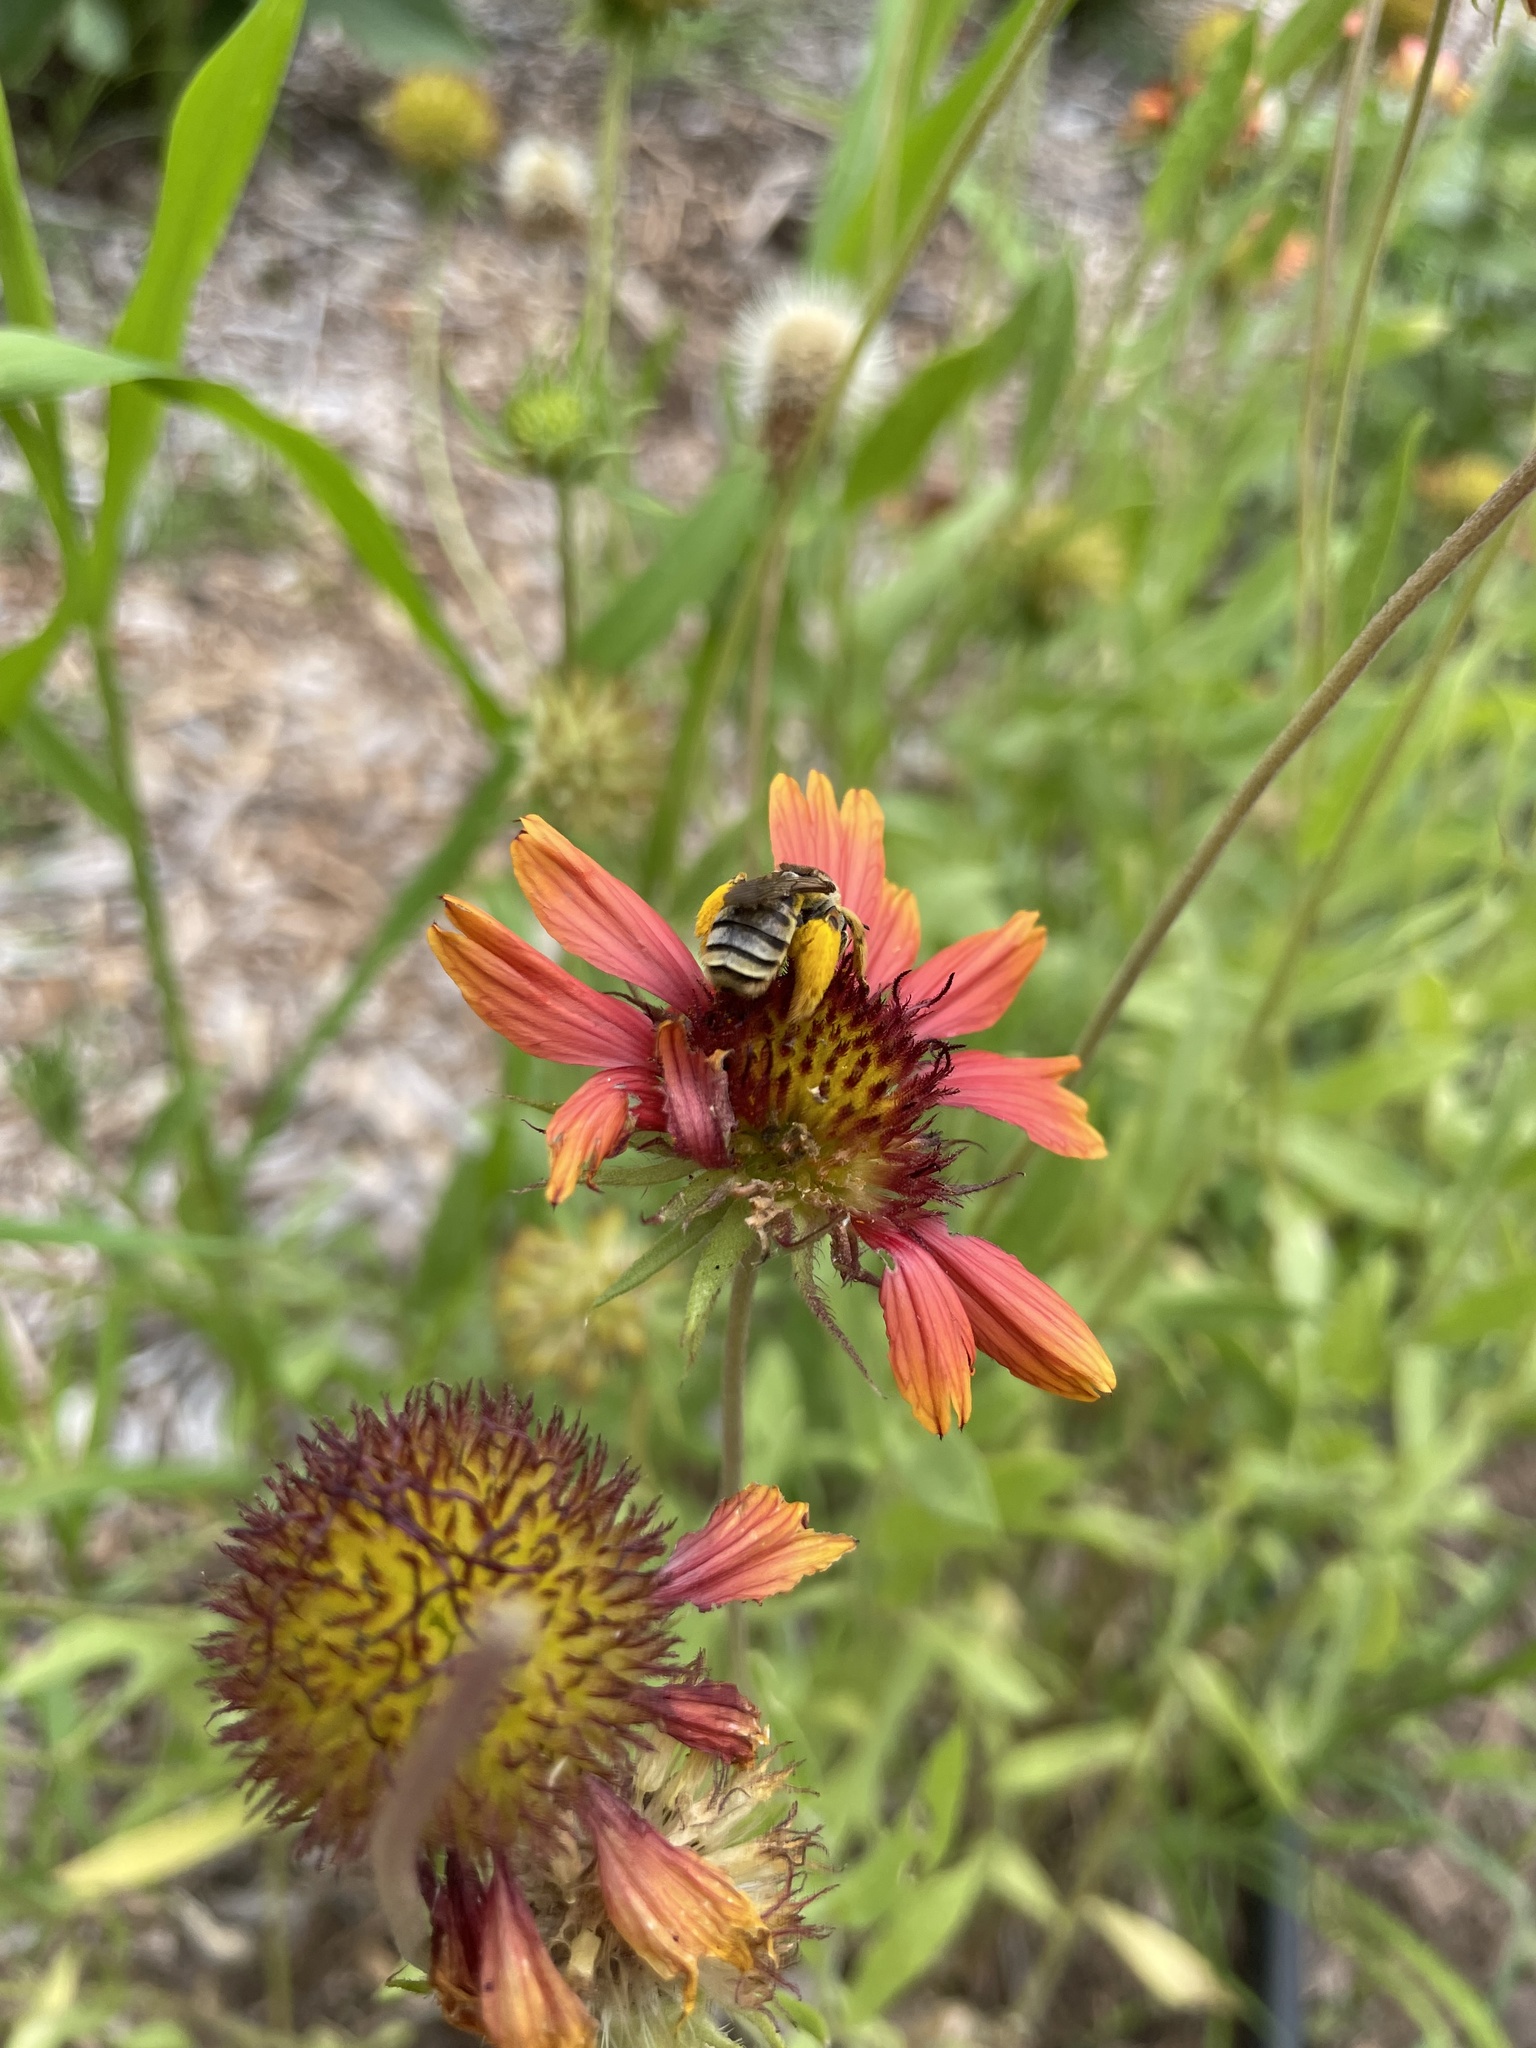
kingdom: Animalia
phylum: Arthropoda
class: Insecta
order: Hymenoptera
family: Apidae
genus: Svastra
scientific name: Svastra petulca
